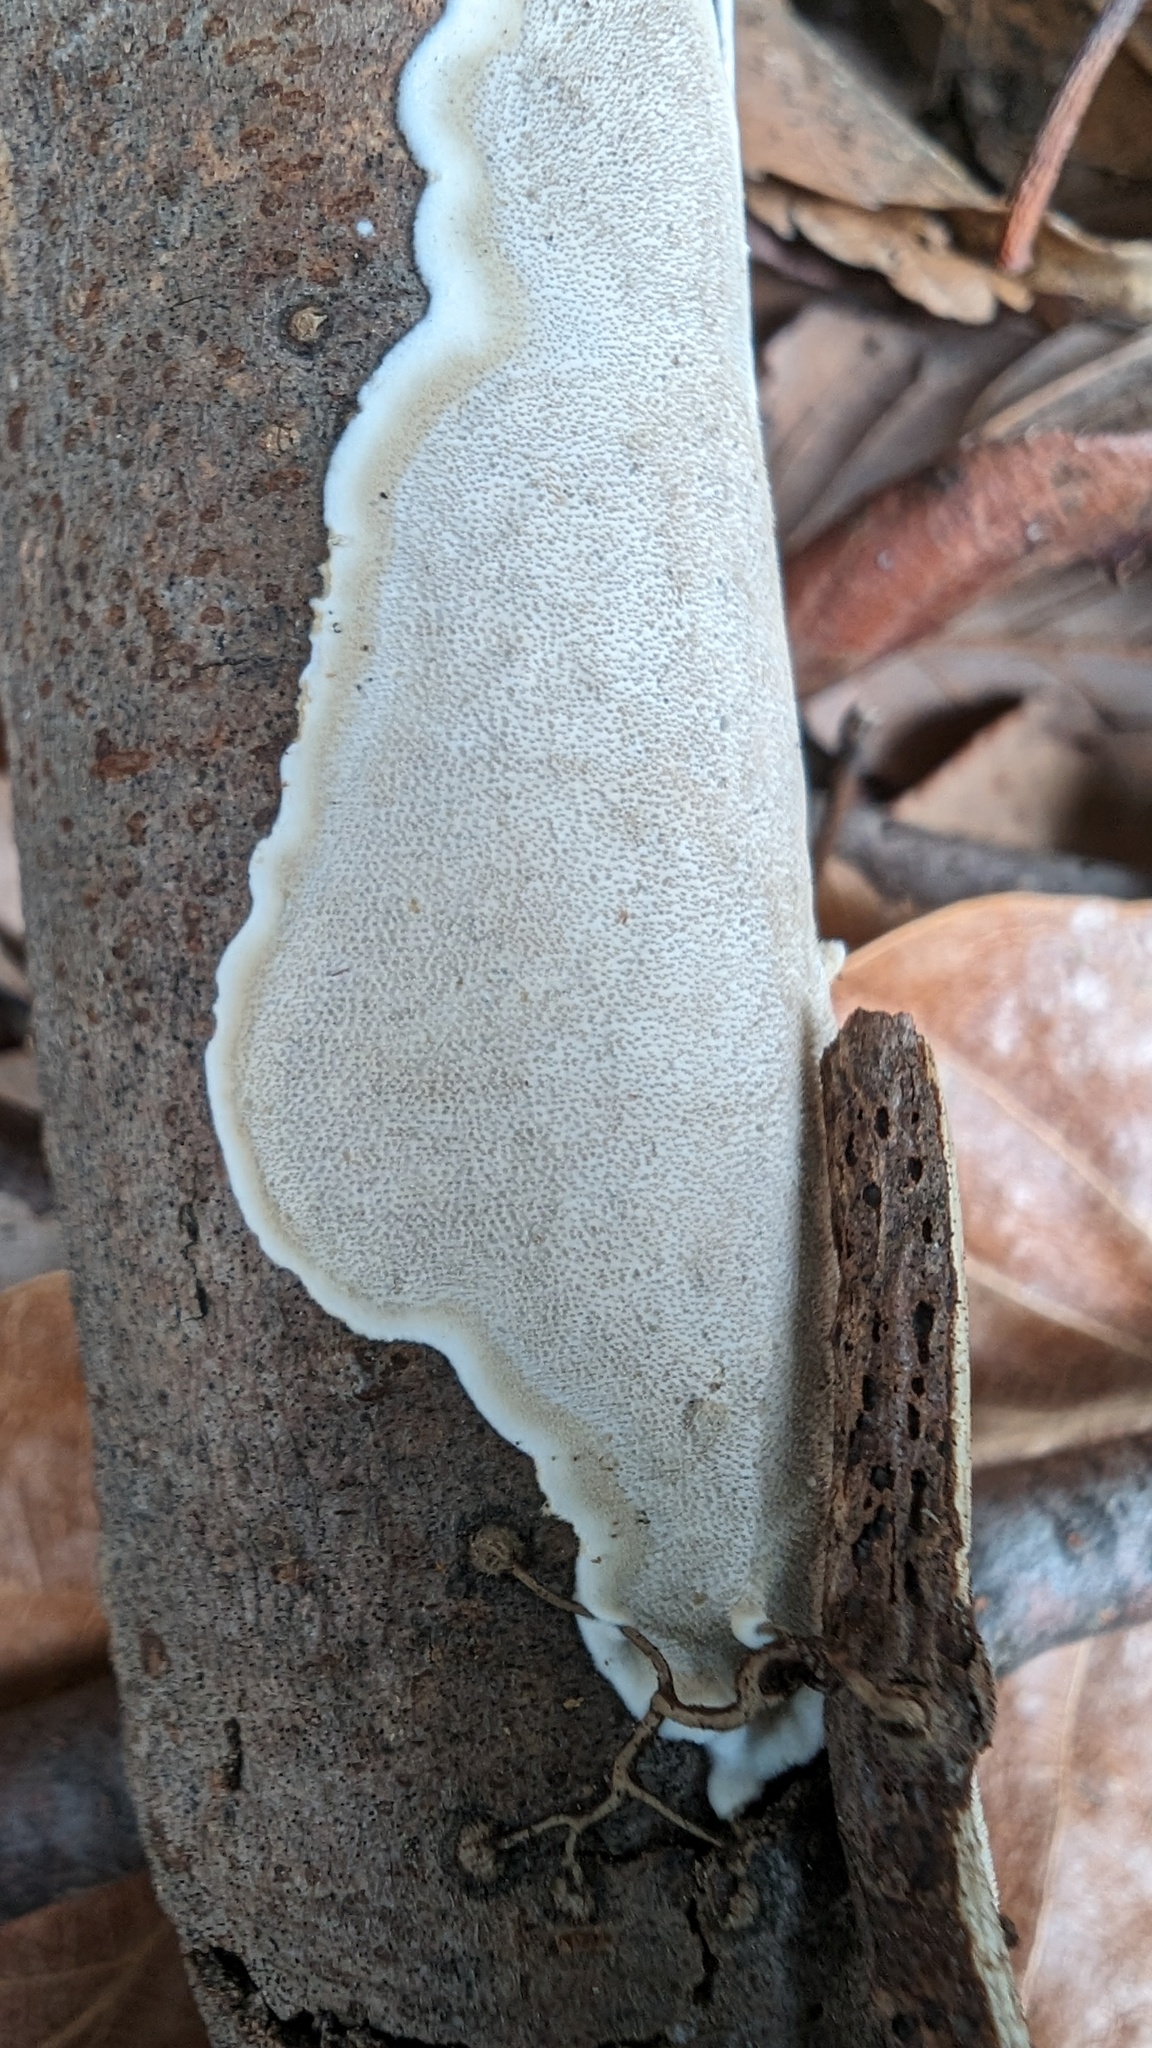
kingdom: Fungi
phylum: Basidiomycota
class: Agaricomycetes
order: Auriculariales
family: Auriculariaceae
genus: Heterochaete
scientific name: Heterochaete delicata
